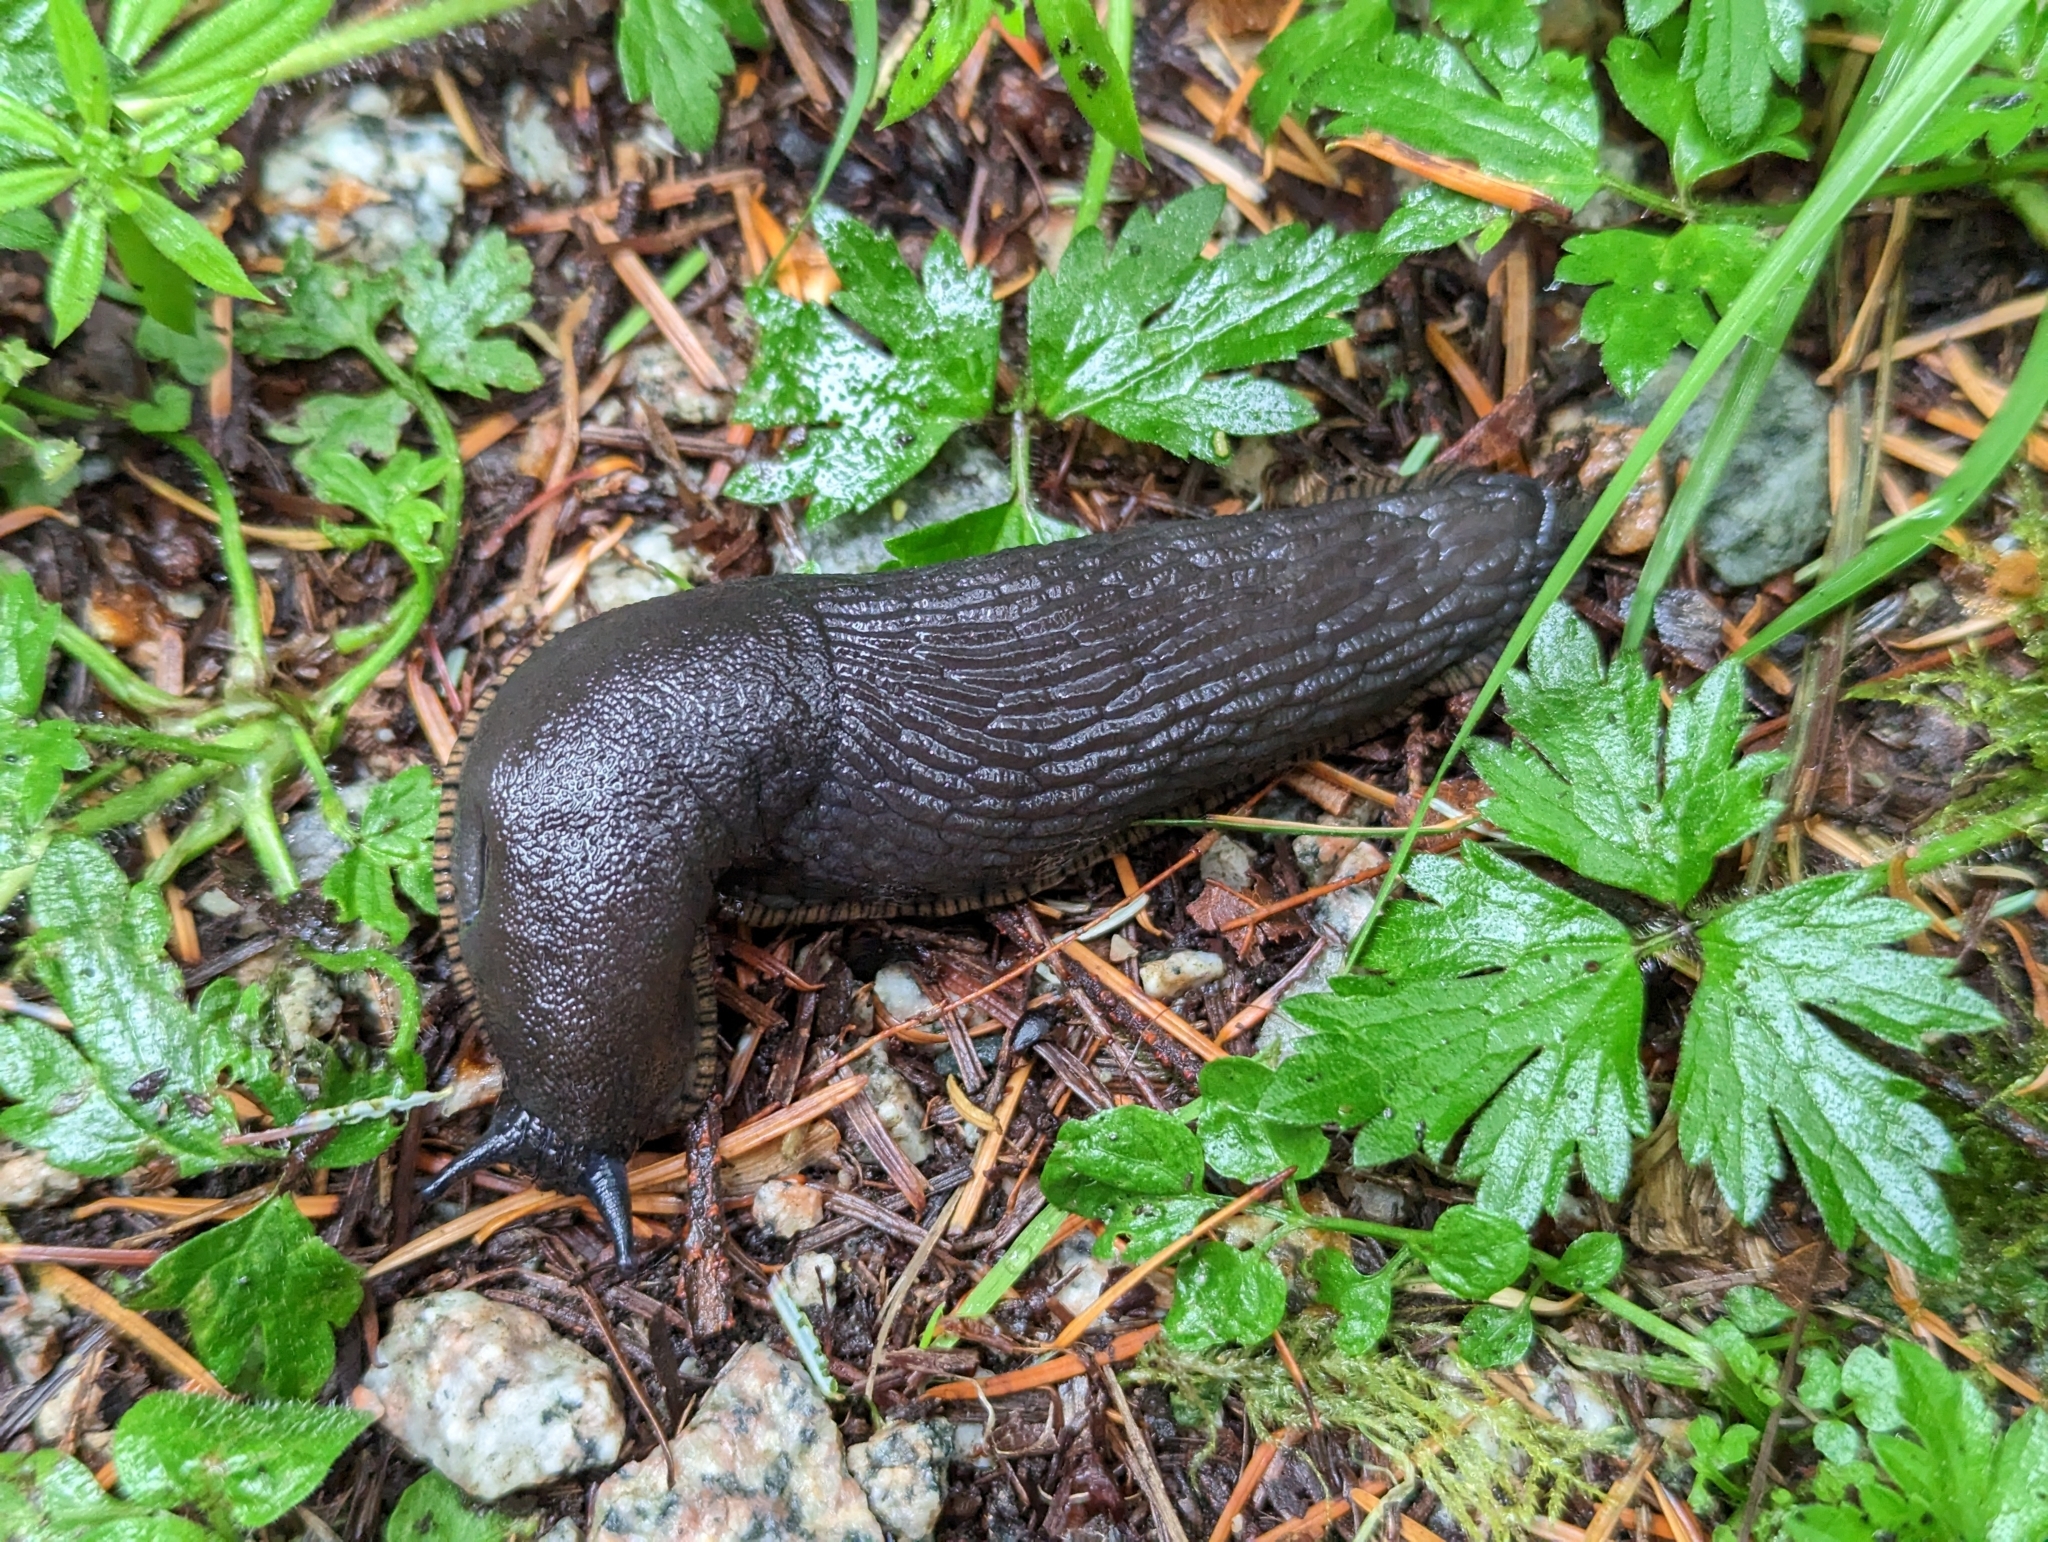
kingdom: Animalia
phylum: Mollusca
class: Gastropoda
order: Stylommatophora
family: Arionidae
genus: Arion
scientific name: Arion
